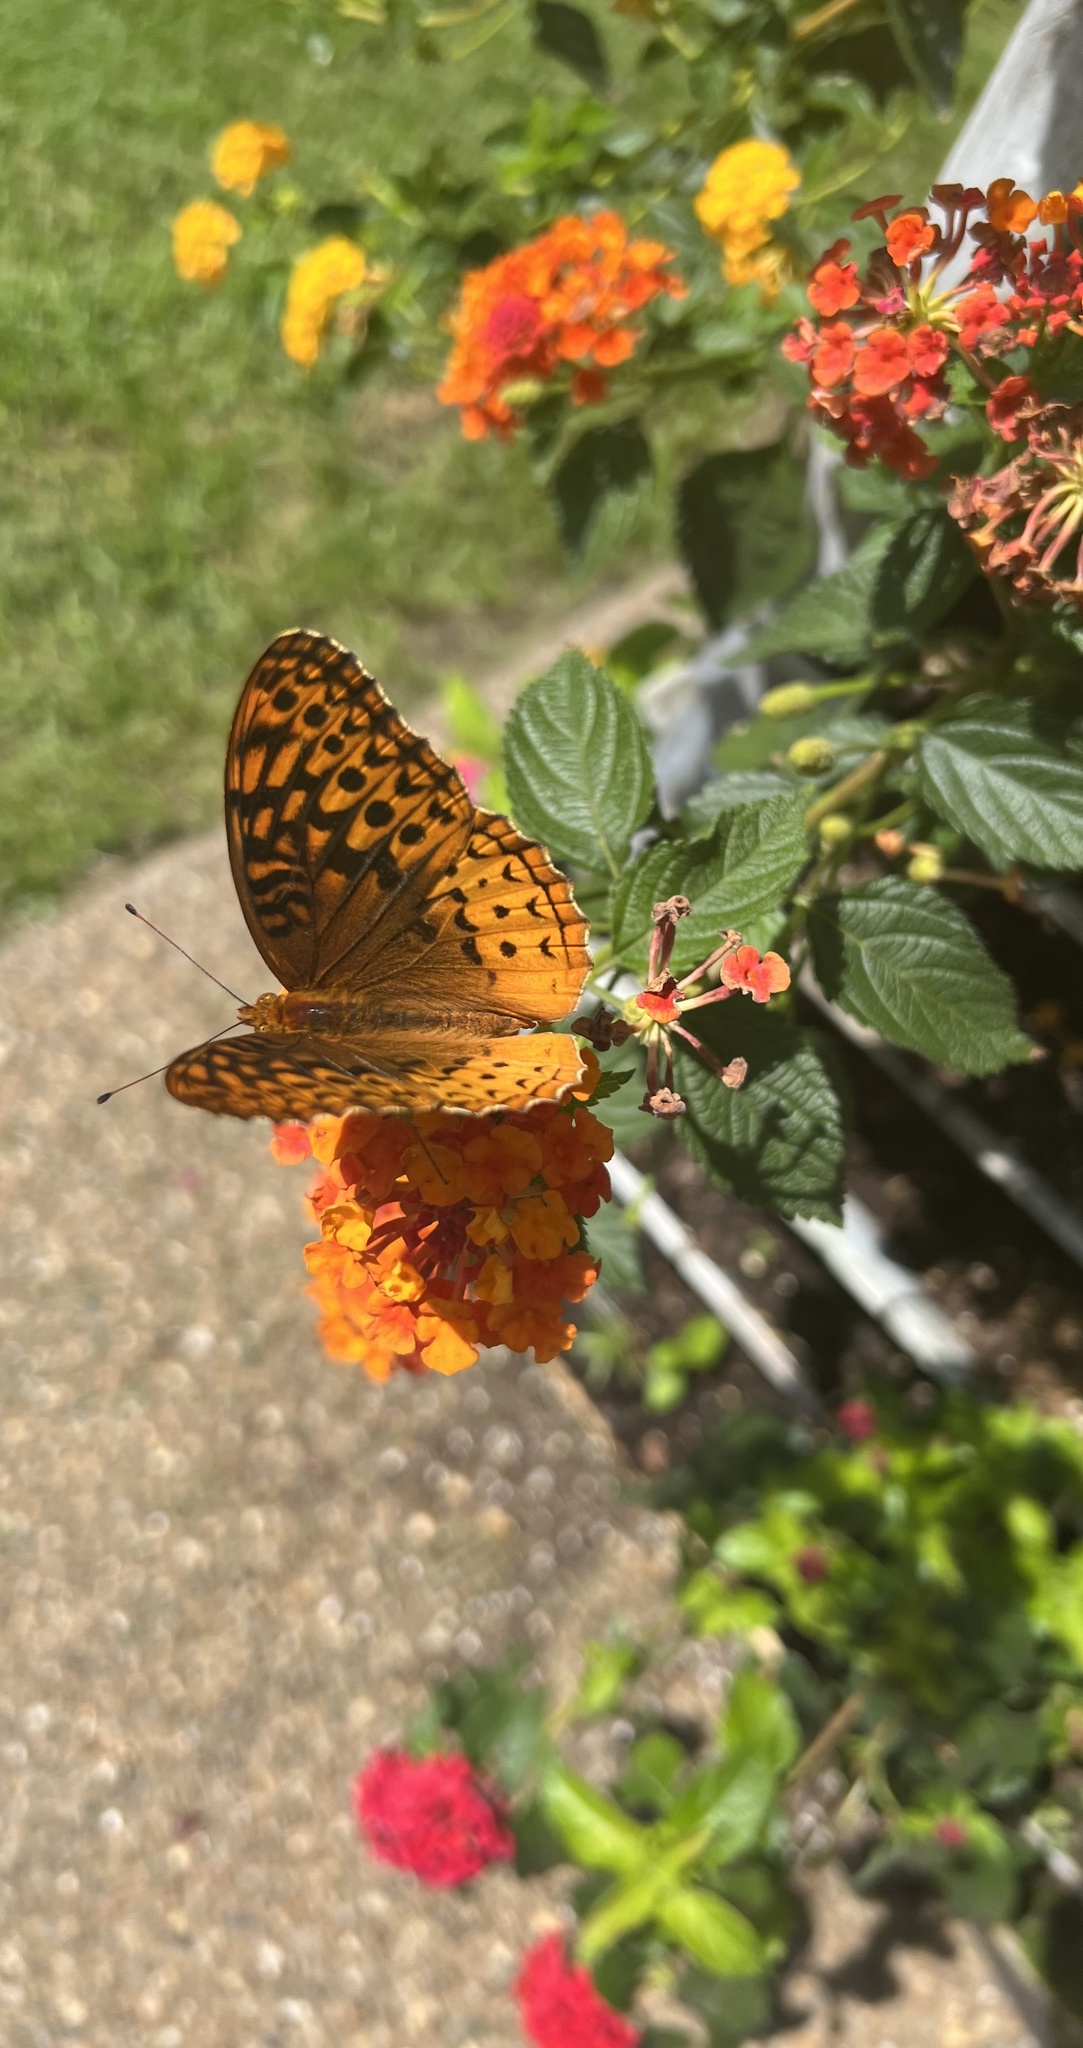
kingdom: Animalia
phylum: Arthropoda
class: Insecta
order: Lepidoptera
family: Nymphalidae
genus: Speyeria
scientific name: Speyeria cybele
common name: Great spangled fritillary
